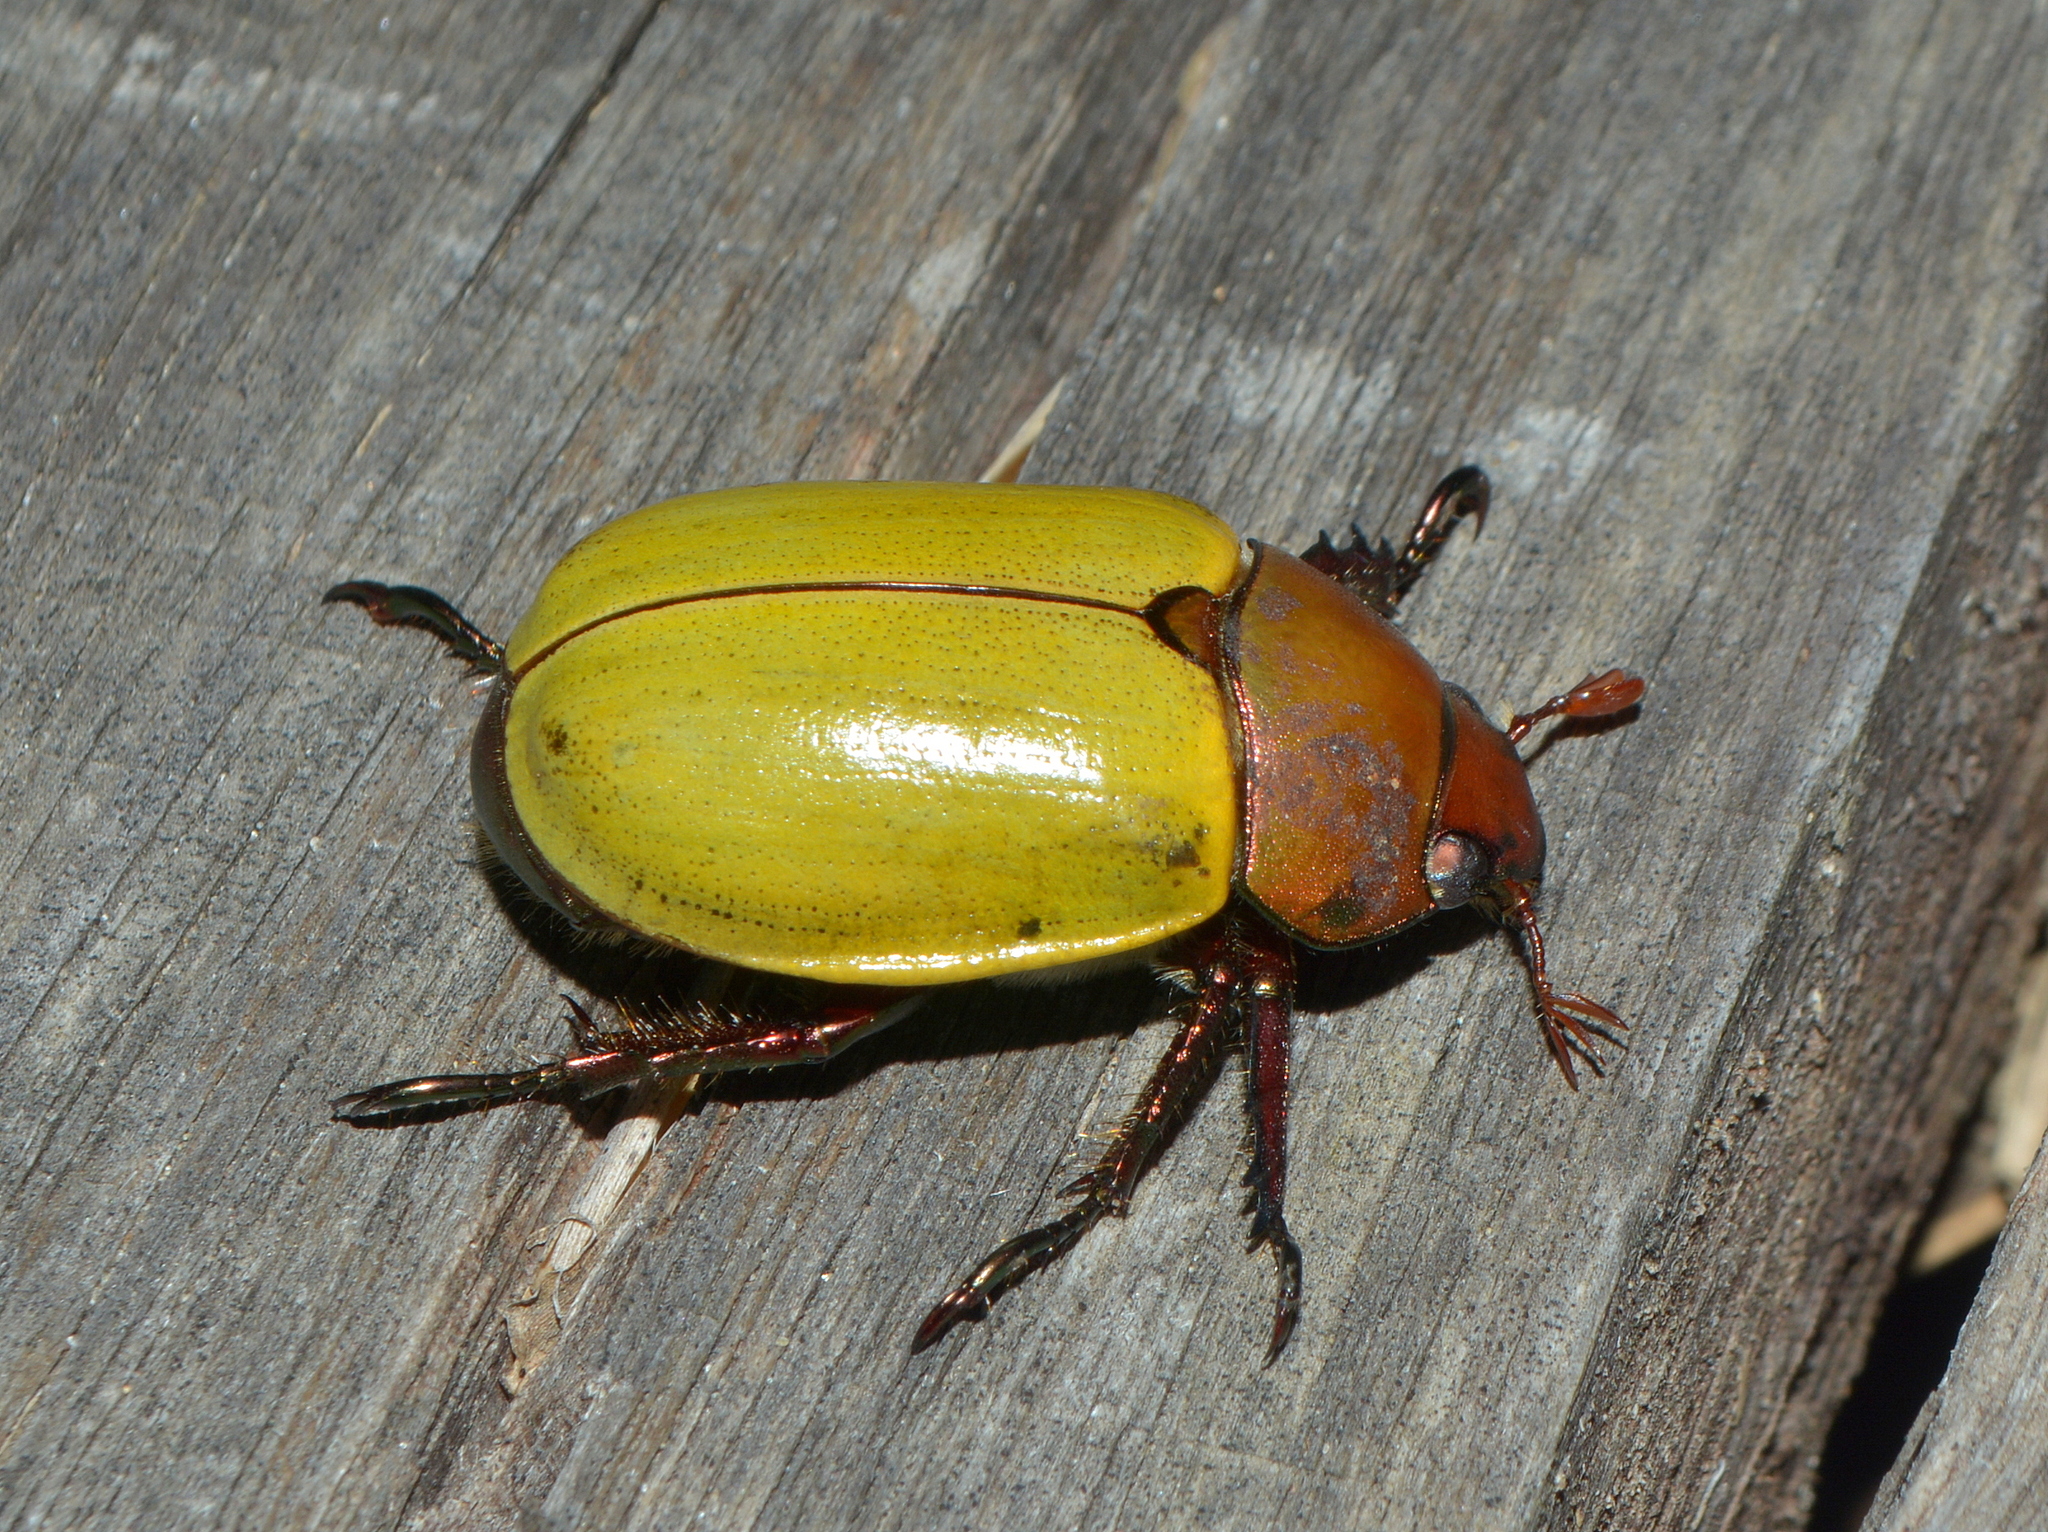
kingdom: Animalia
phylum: Arthropoda
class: Insecta
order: Coleoptera
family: Scarabaeidae
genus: Pelidnota
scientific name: Pelidnota semiaurata
